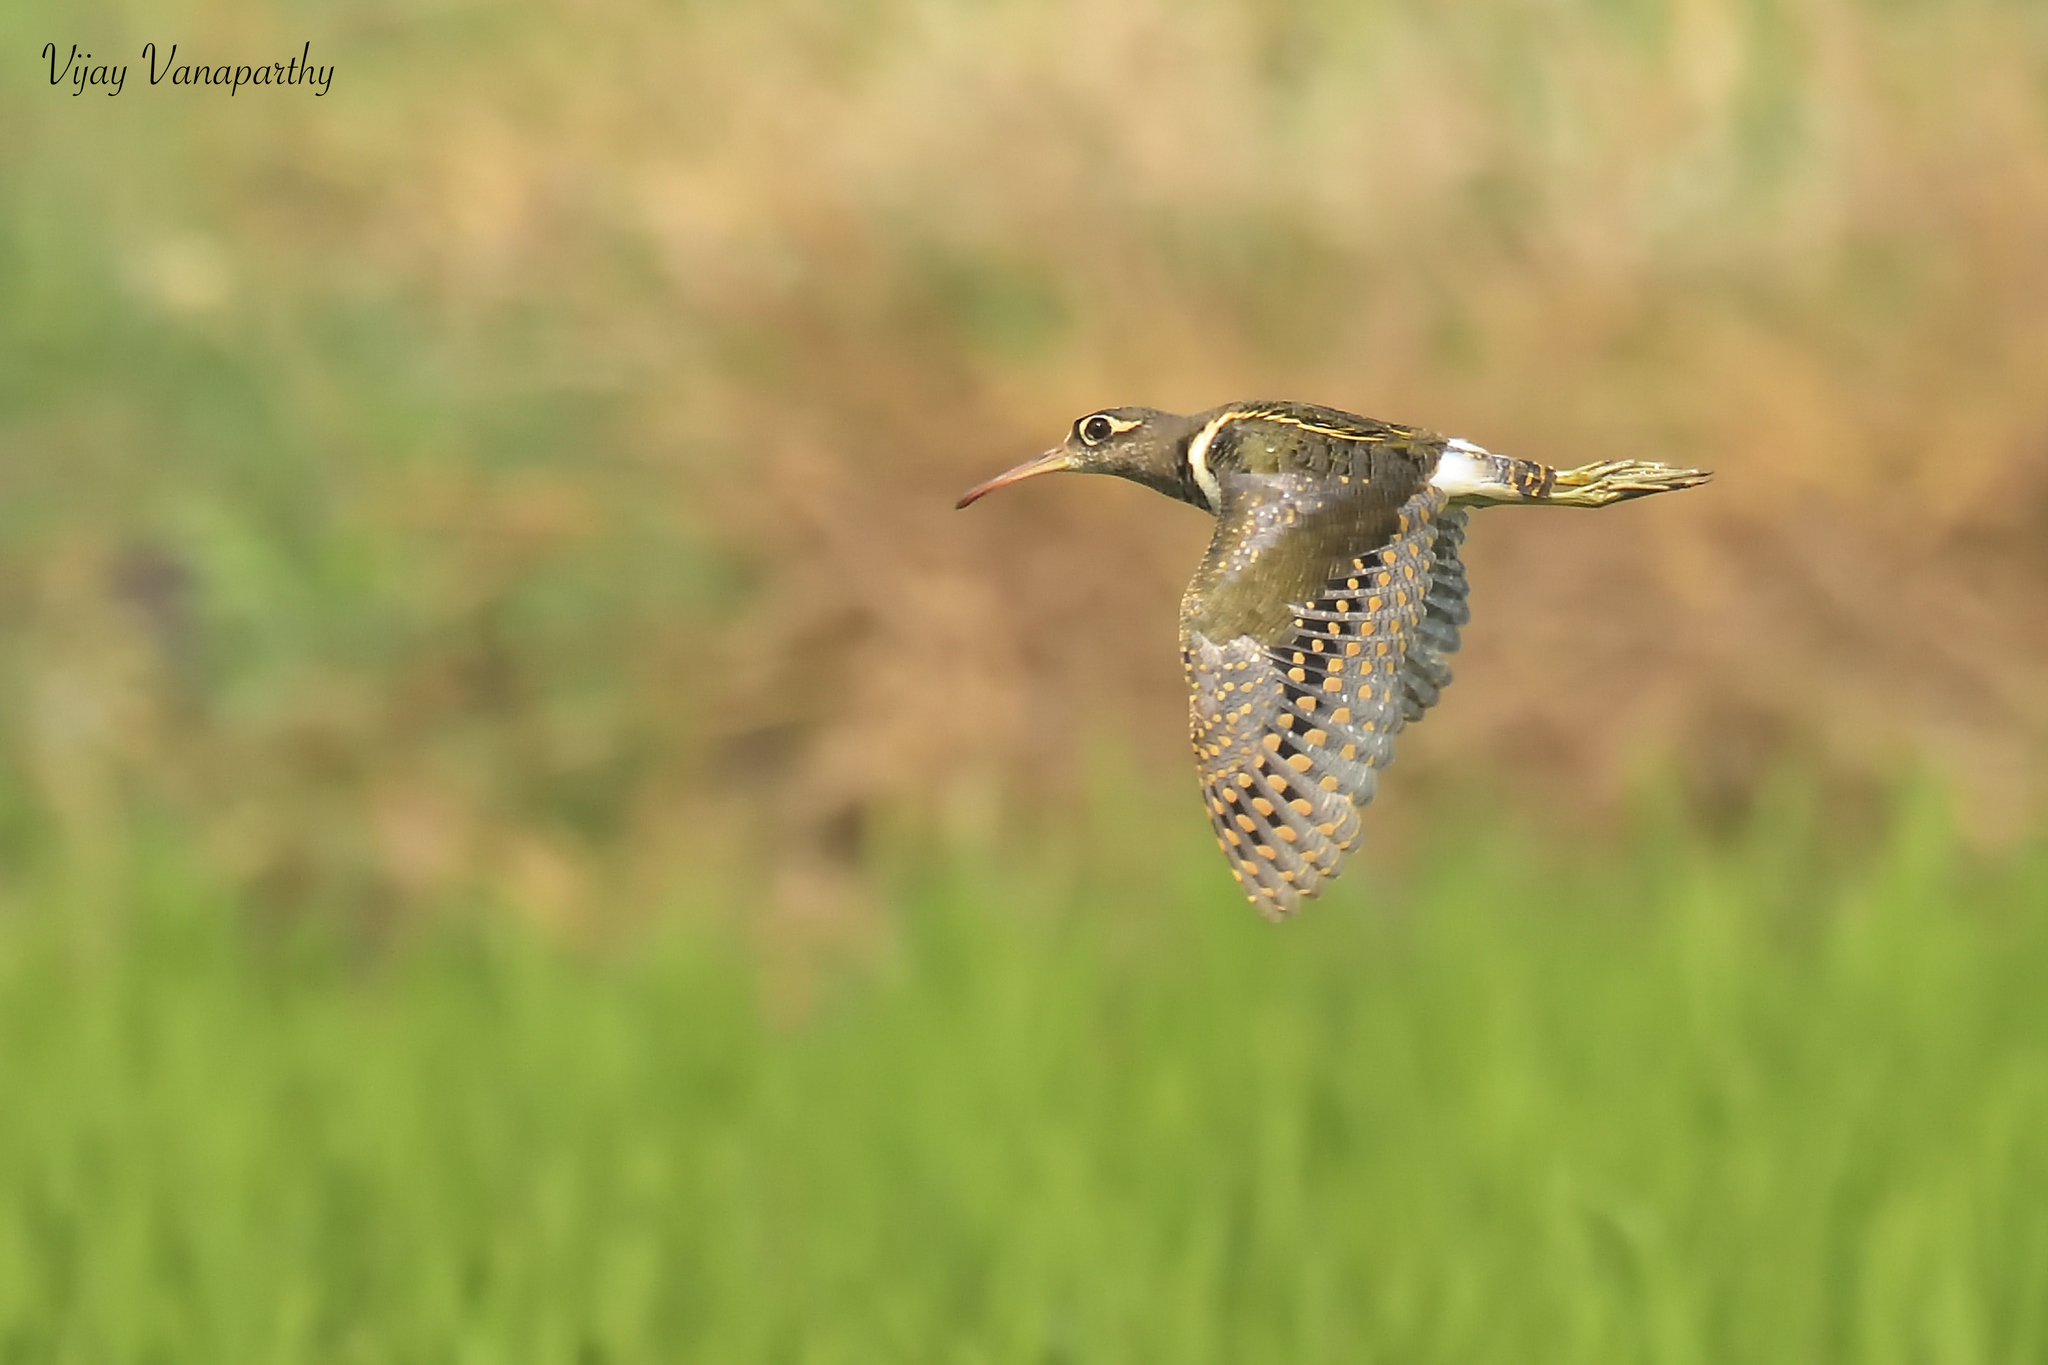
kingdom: Animalia
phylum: Chordata
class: Aves
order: Charadriiformes
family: Rostratulidae
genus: Rostratula
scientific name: Rostratula benghalensis
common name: Greater painted-snipe
